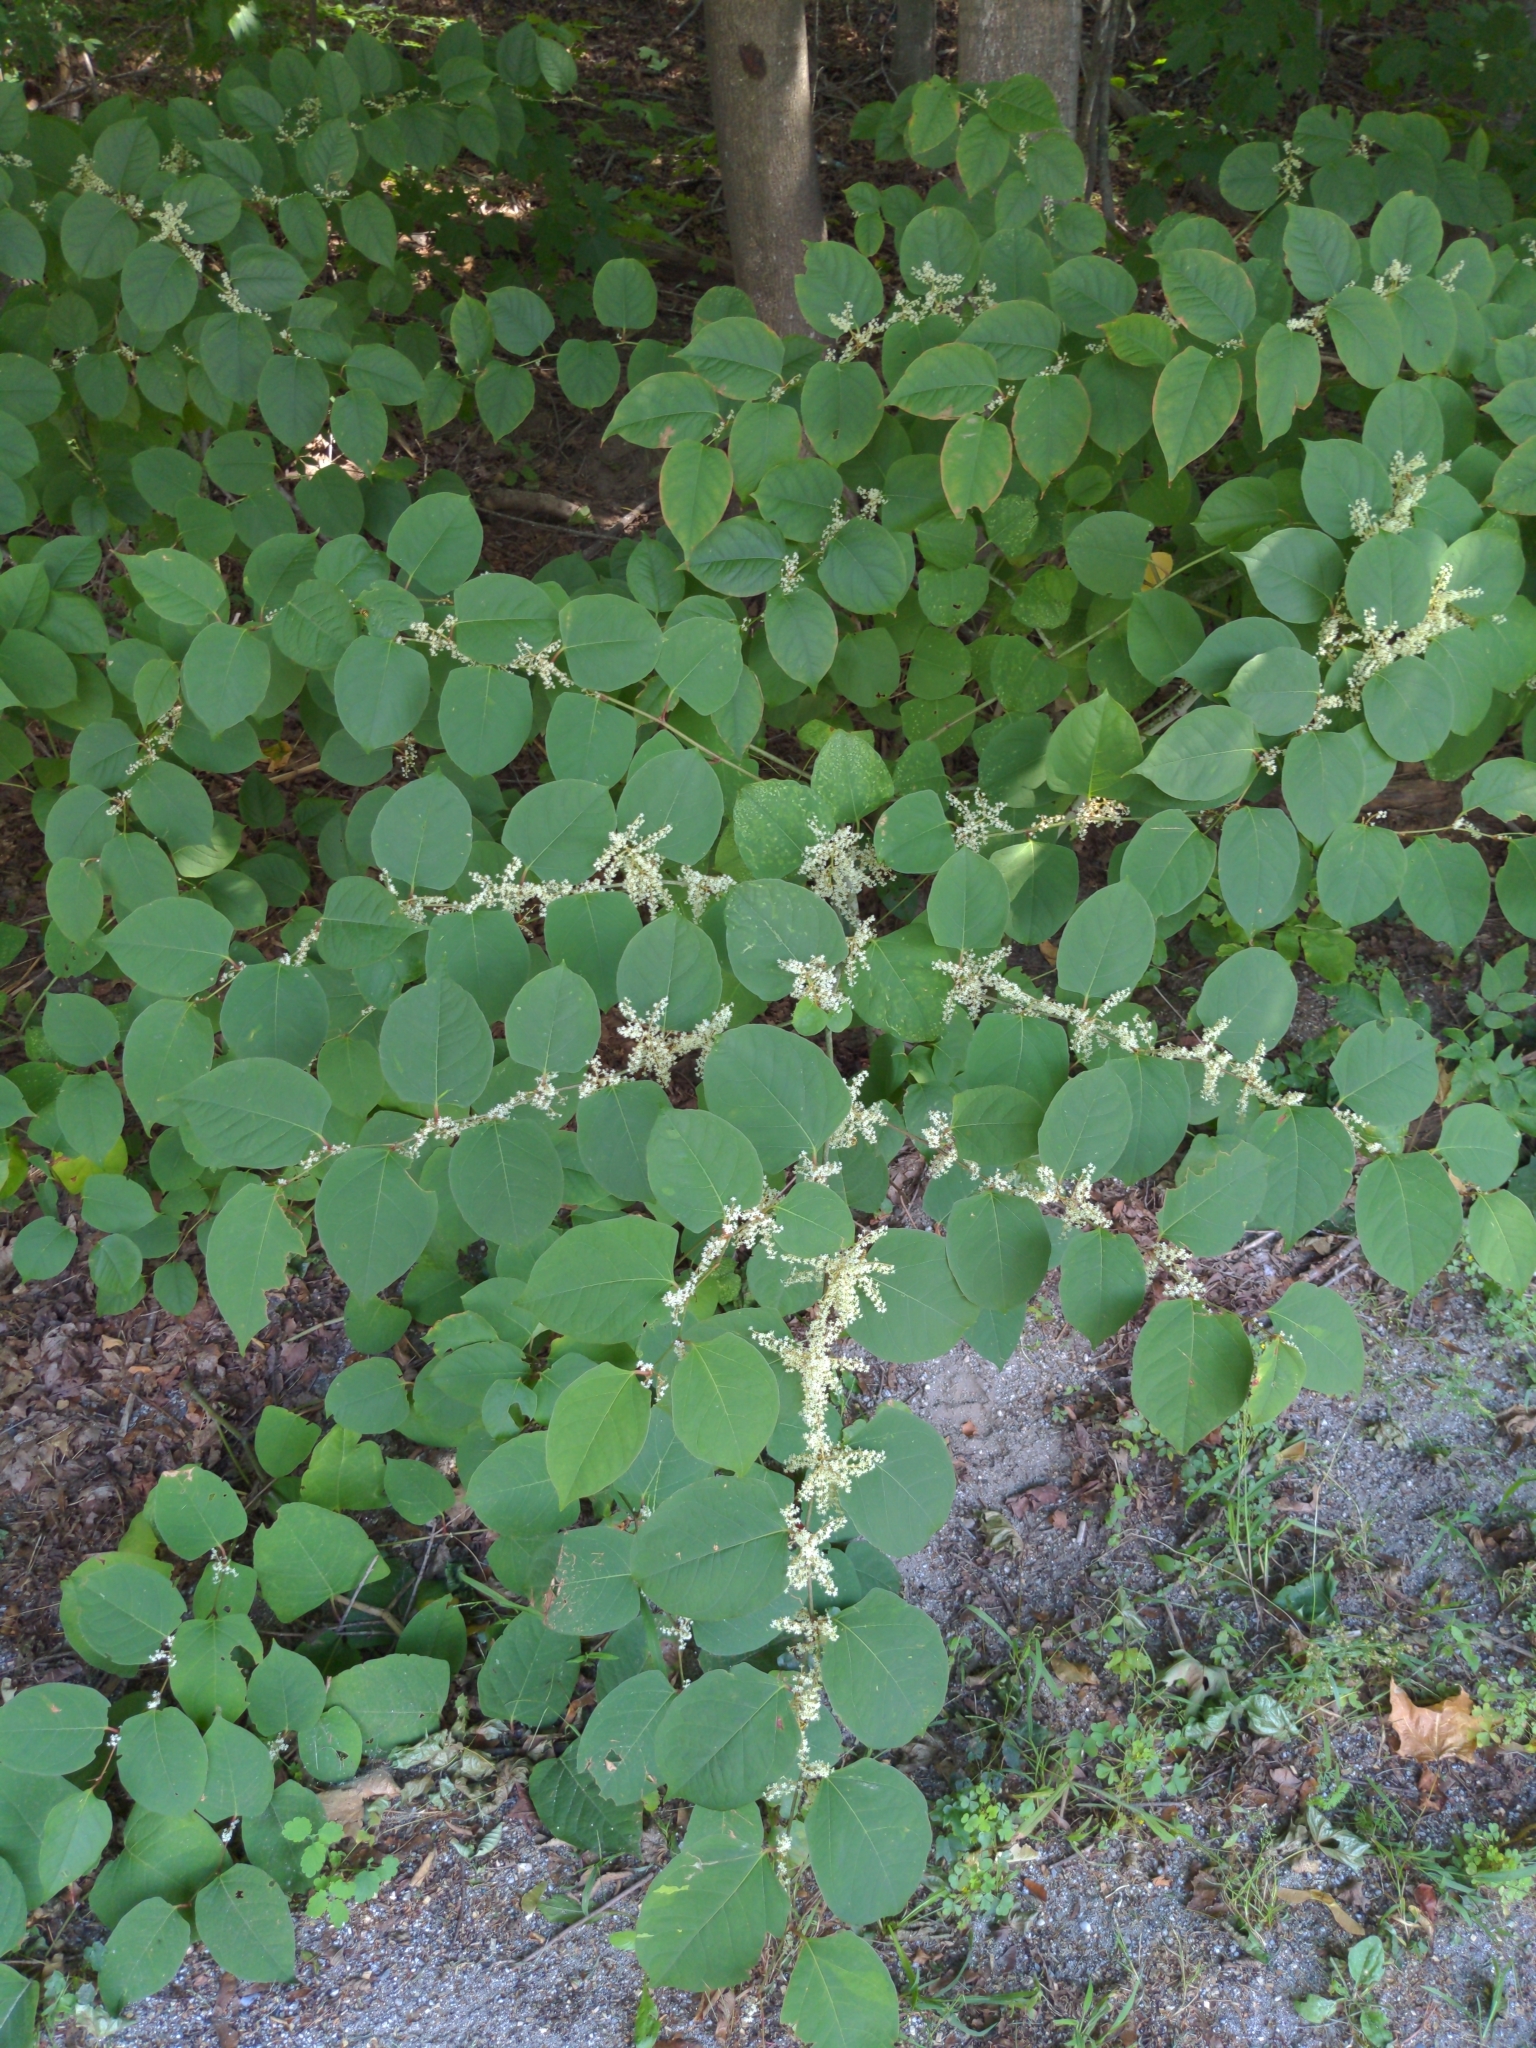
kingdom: Plantae
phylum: Tracheophyta
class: Magnoliopsida
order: Caryophyllales
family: Polygonaceae
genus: Reynoutria
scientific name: Reynoutria japonica
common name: Japanese knotweed
